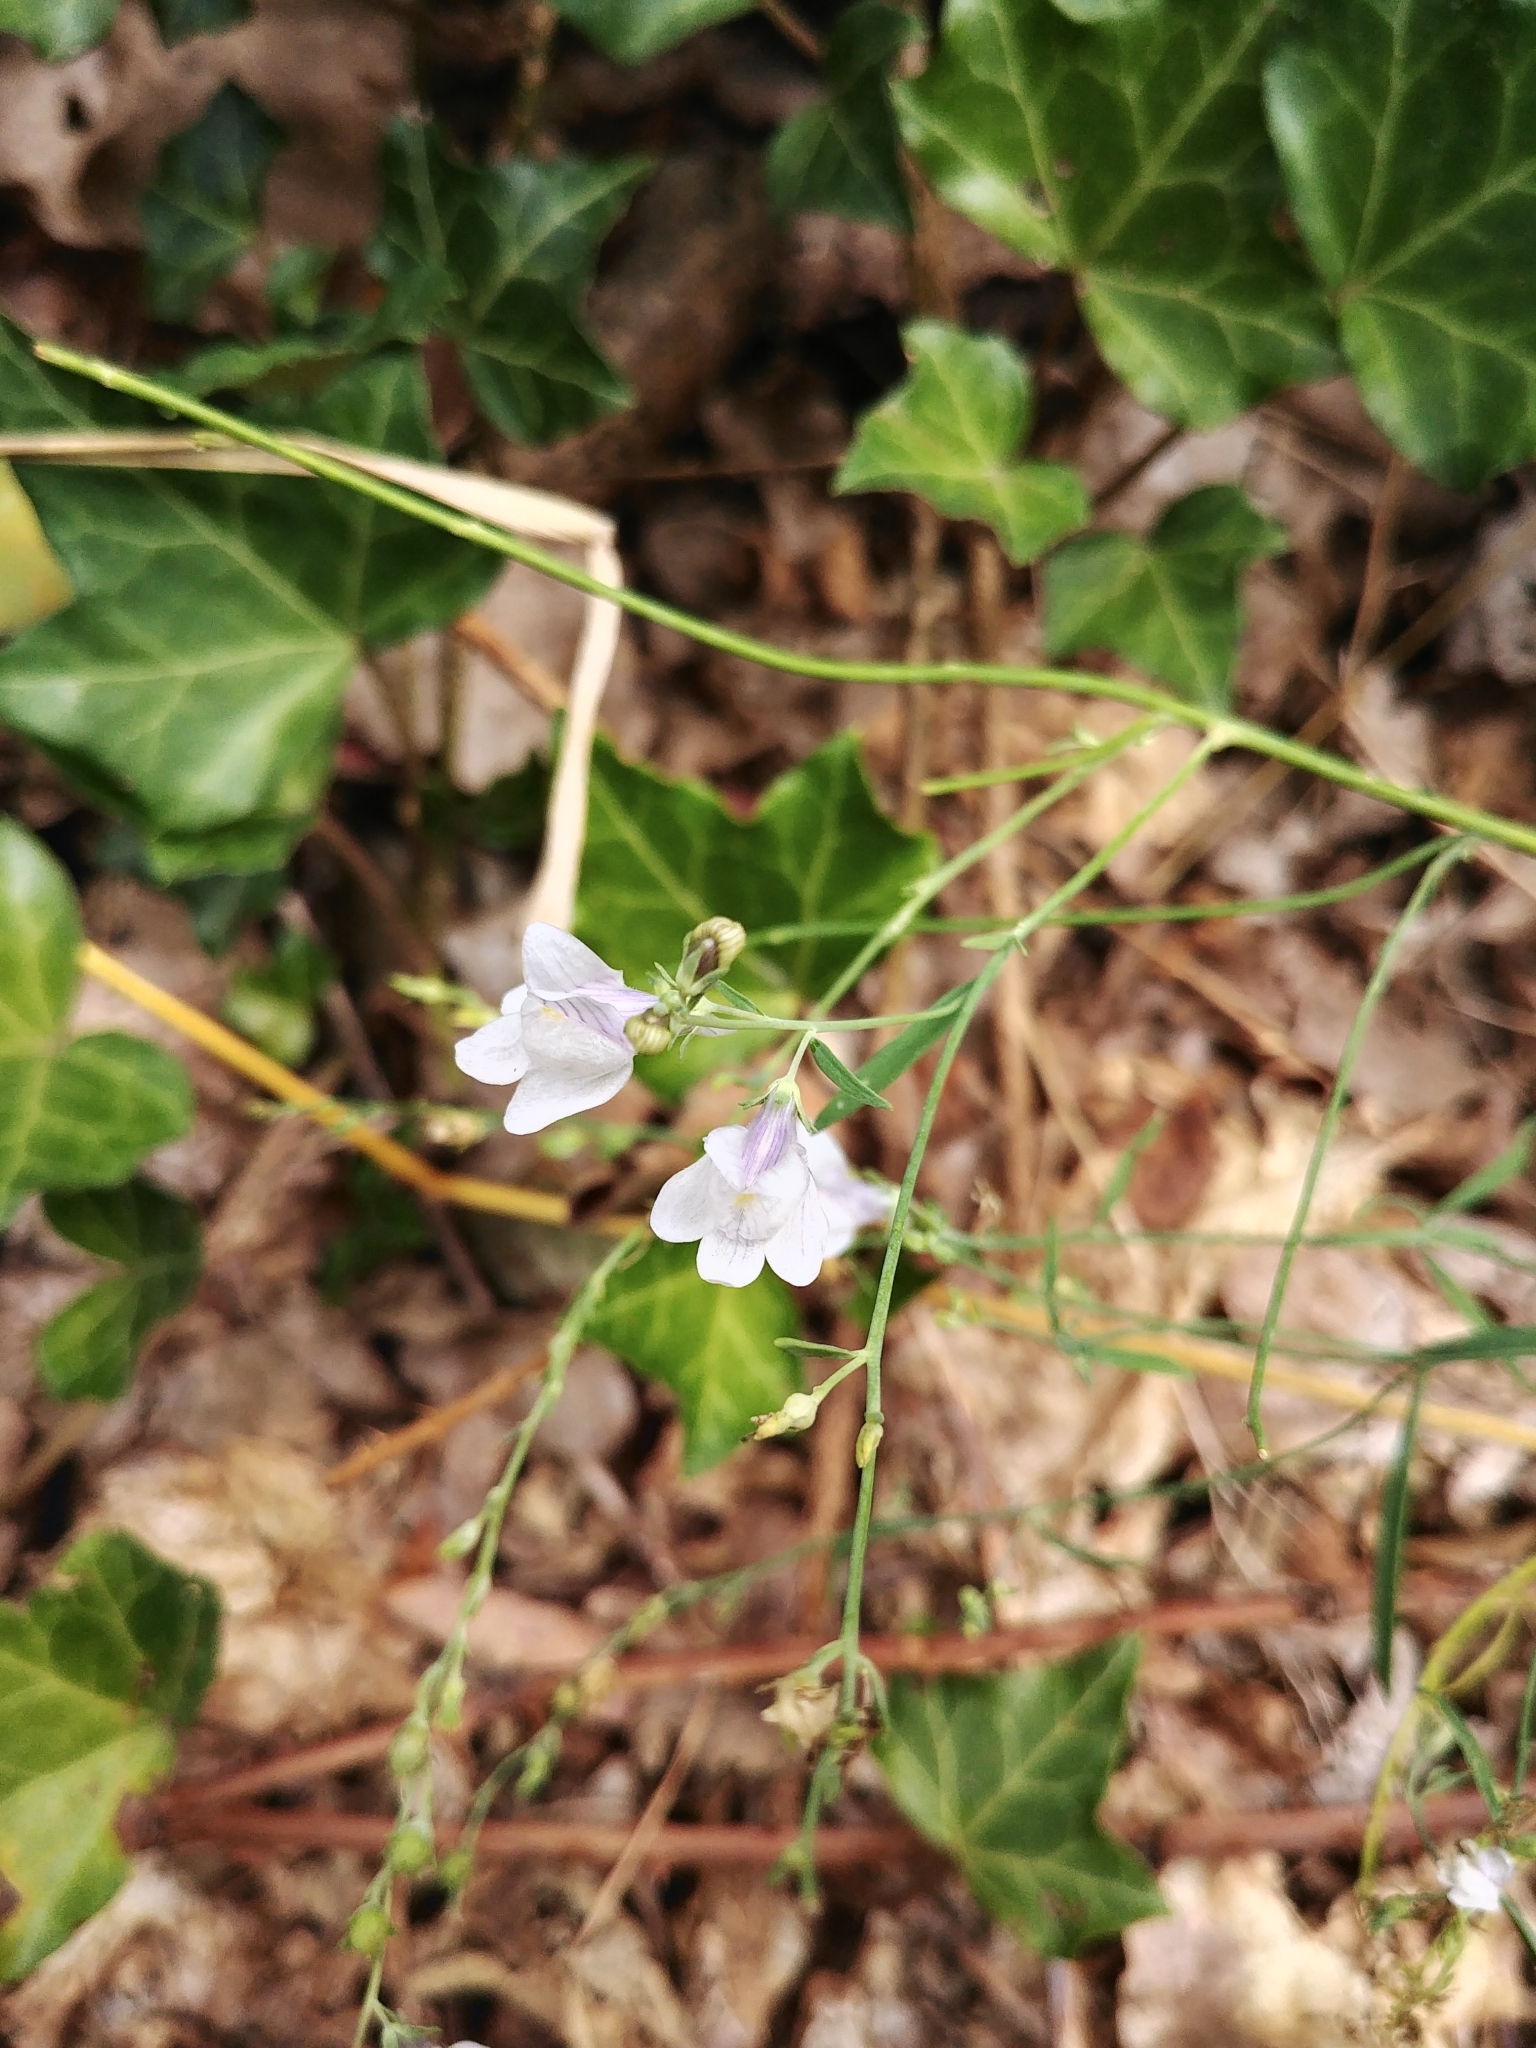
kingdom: Plantae
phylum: Tracheophyta
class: Magnoliopsida
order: Lamiales
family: Plantaginaceae
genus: Linaria
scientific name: Linaria repens
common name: Pale toadflax
